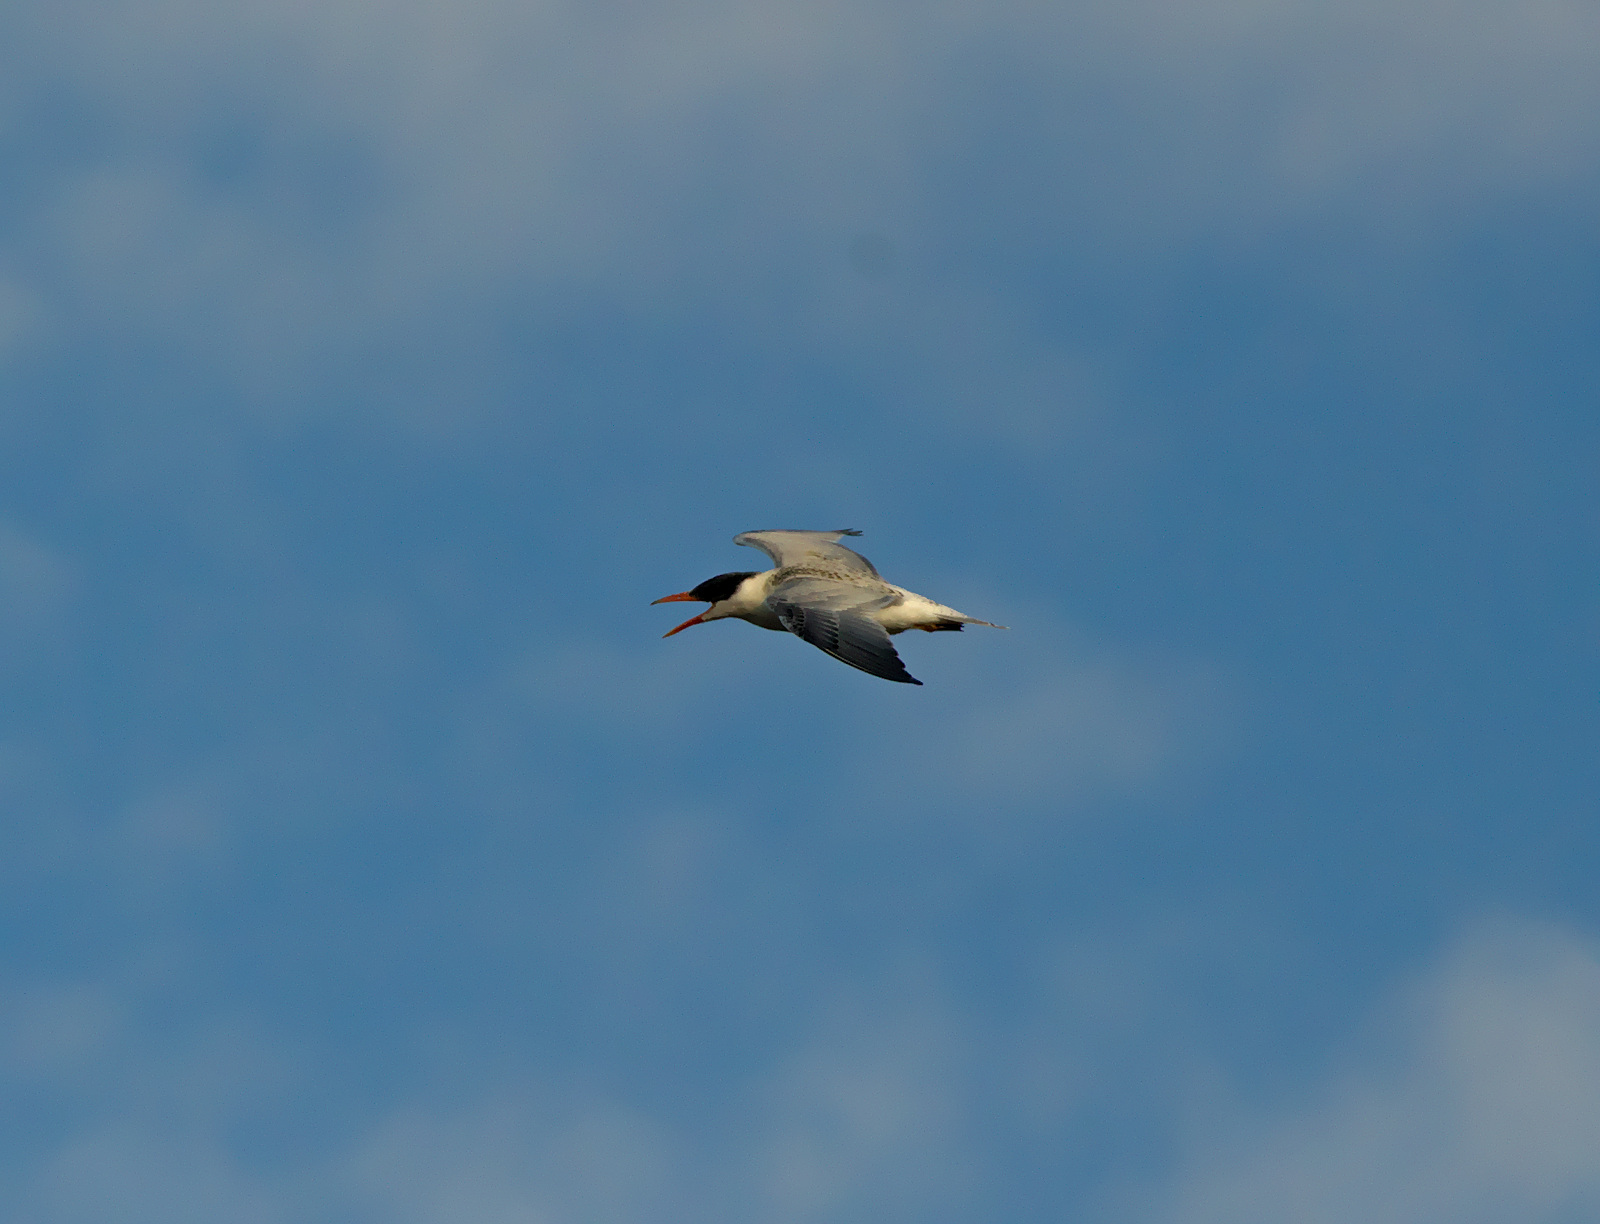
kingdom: Animalia
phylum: Chordata
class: Aves
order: Charadriiformes
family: Laridae
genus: Hydroprogne
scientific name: Hydroprogne caspia
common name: Caspian tern
